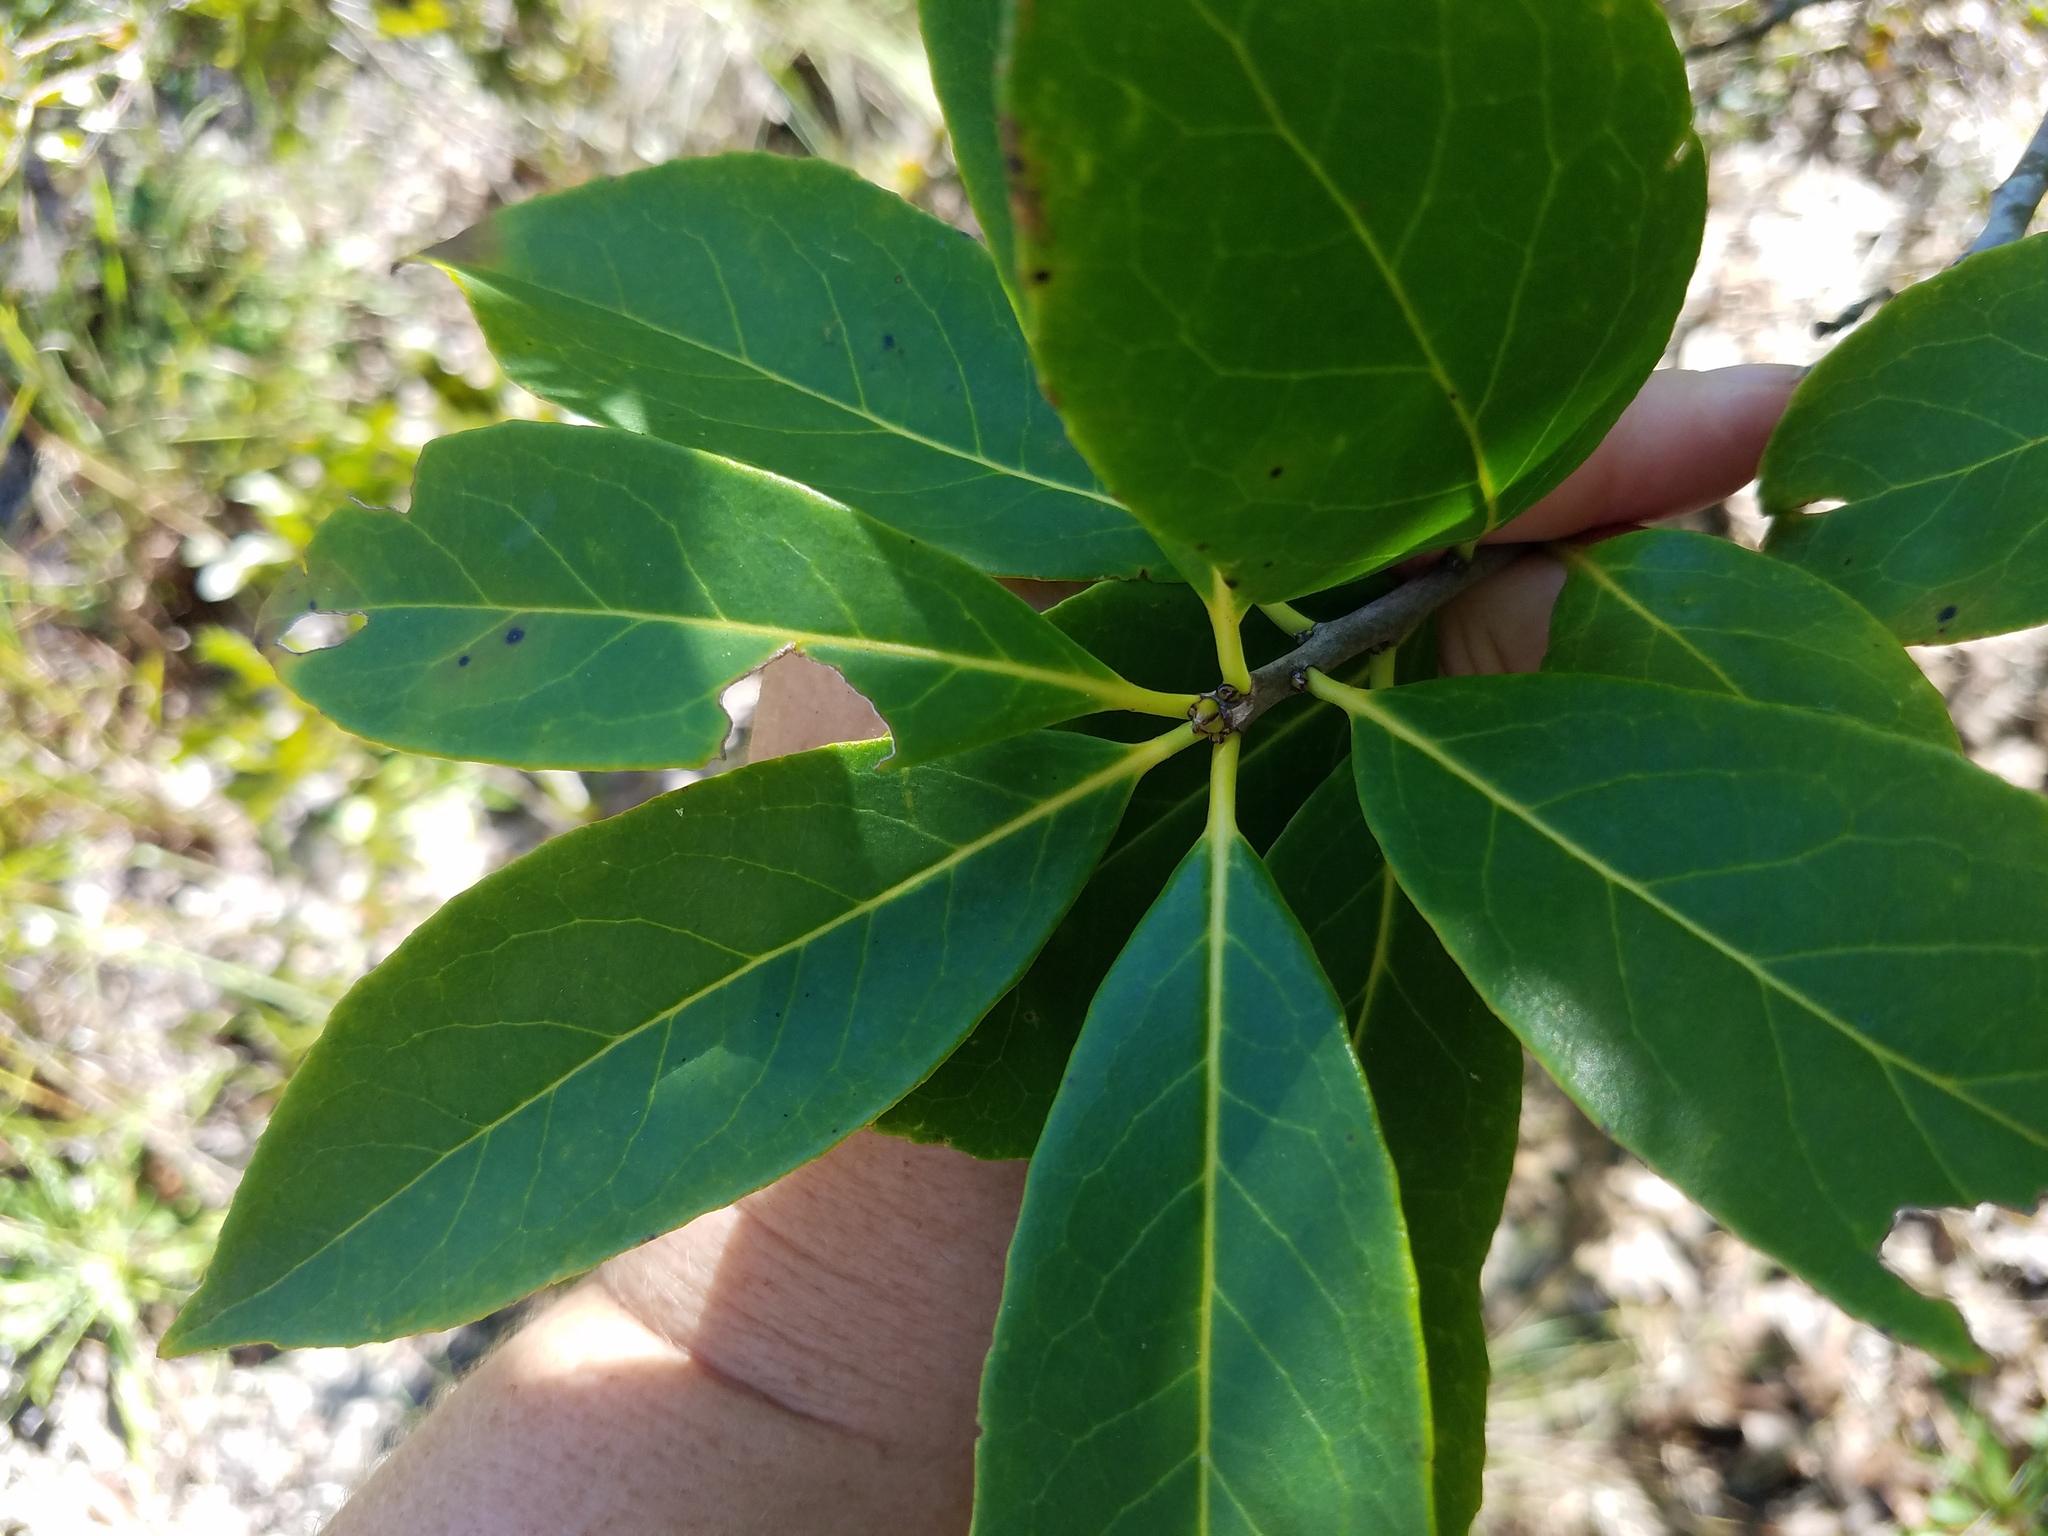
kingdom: Plantae
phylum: Tracheophyta
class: Magnoliopsida
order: Ericales
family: Symplocaceae
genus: Symplocos
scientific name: Symplocos tinctoria
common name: Horse-sugar
